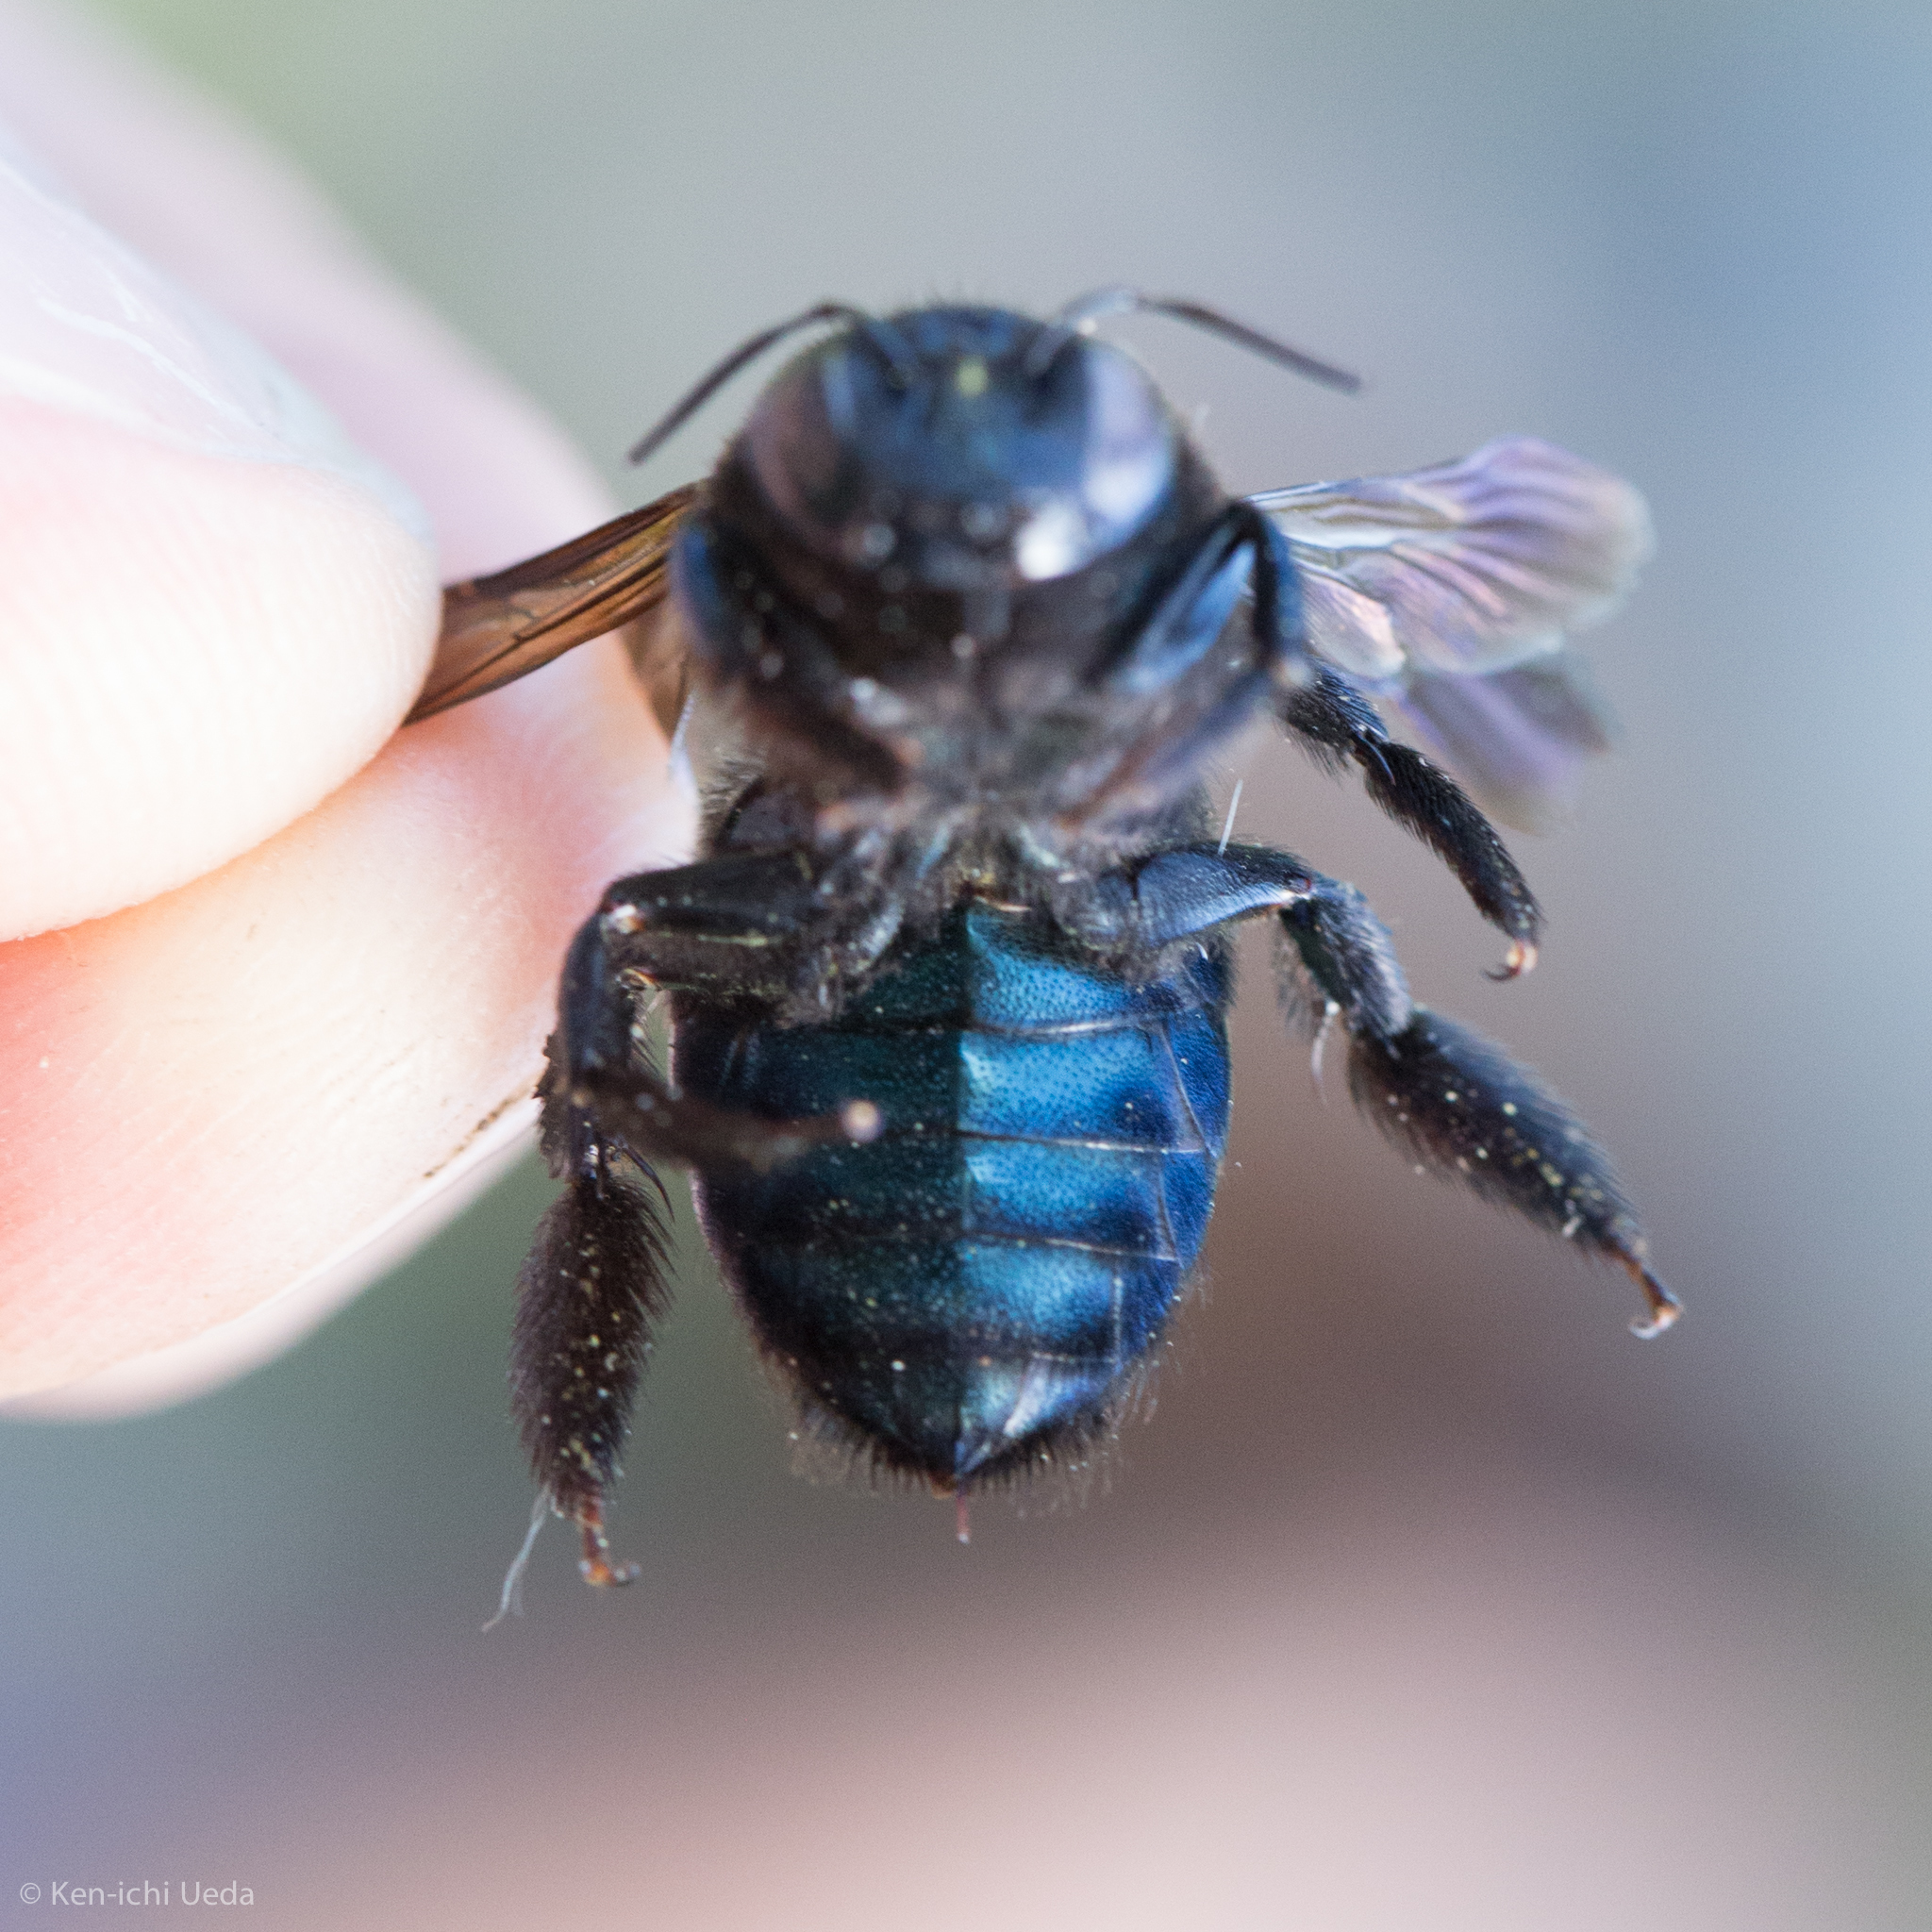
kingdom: Animalia
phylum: Arthropoda
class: Insecta
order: Hymenoptera
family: Apidae
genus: Xylocopa
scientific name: Xylocopa californica
